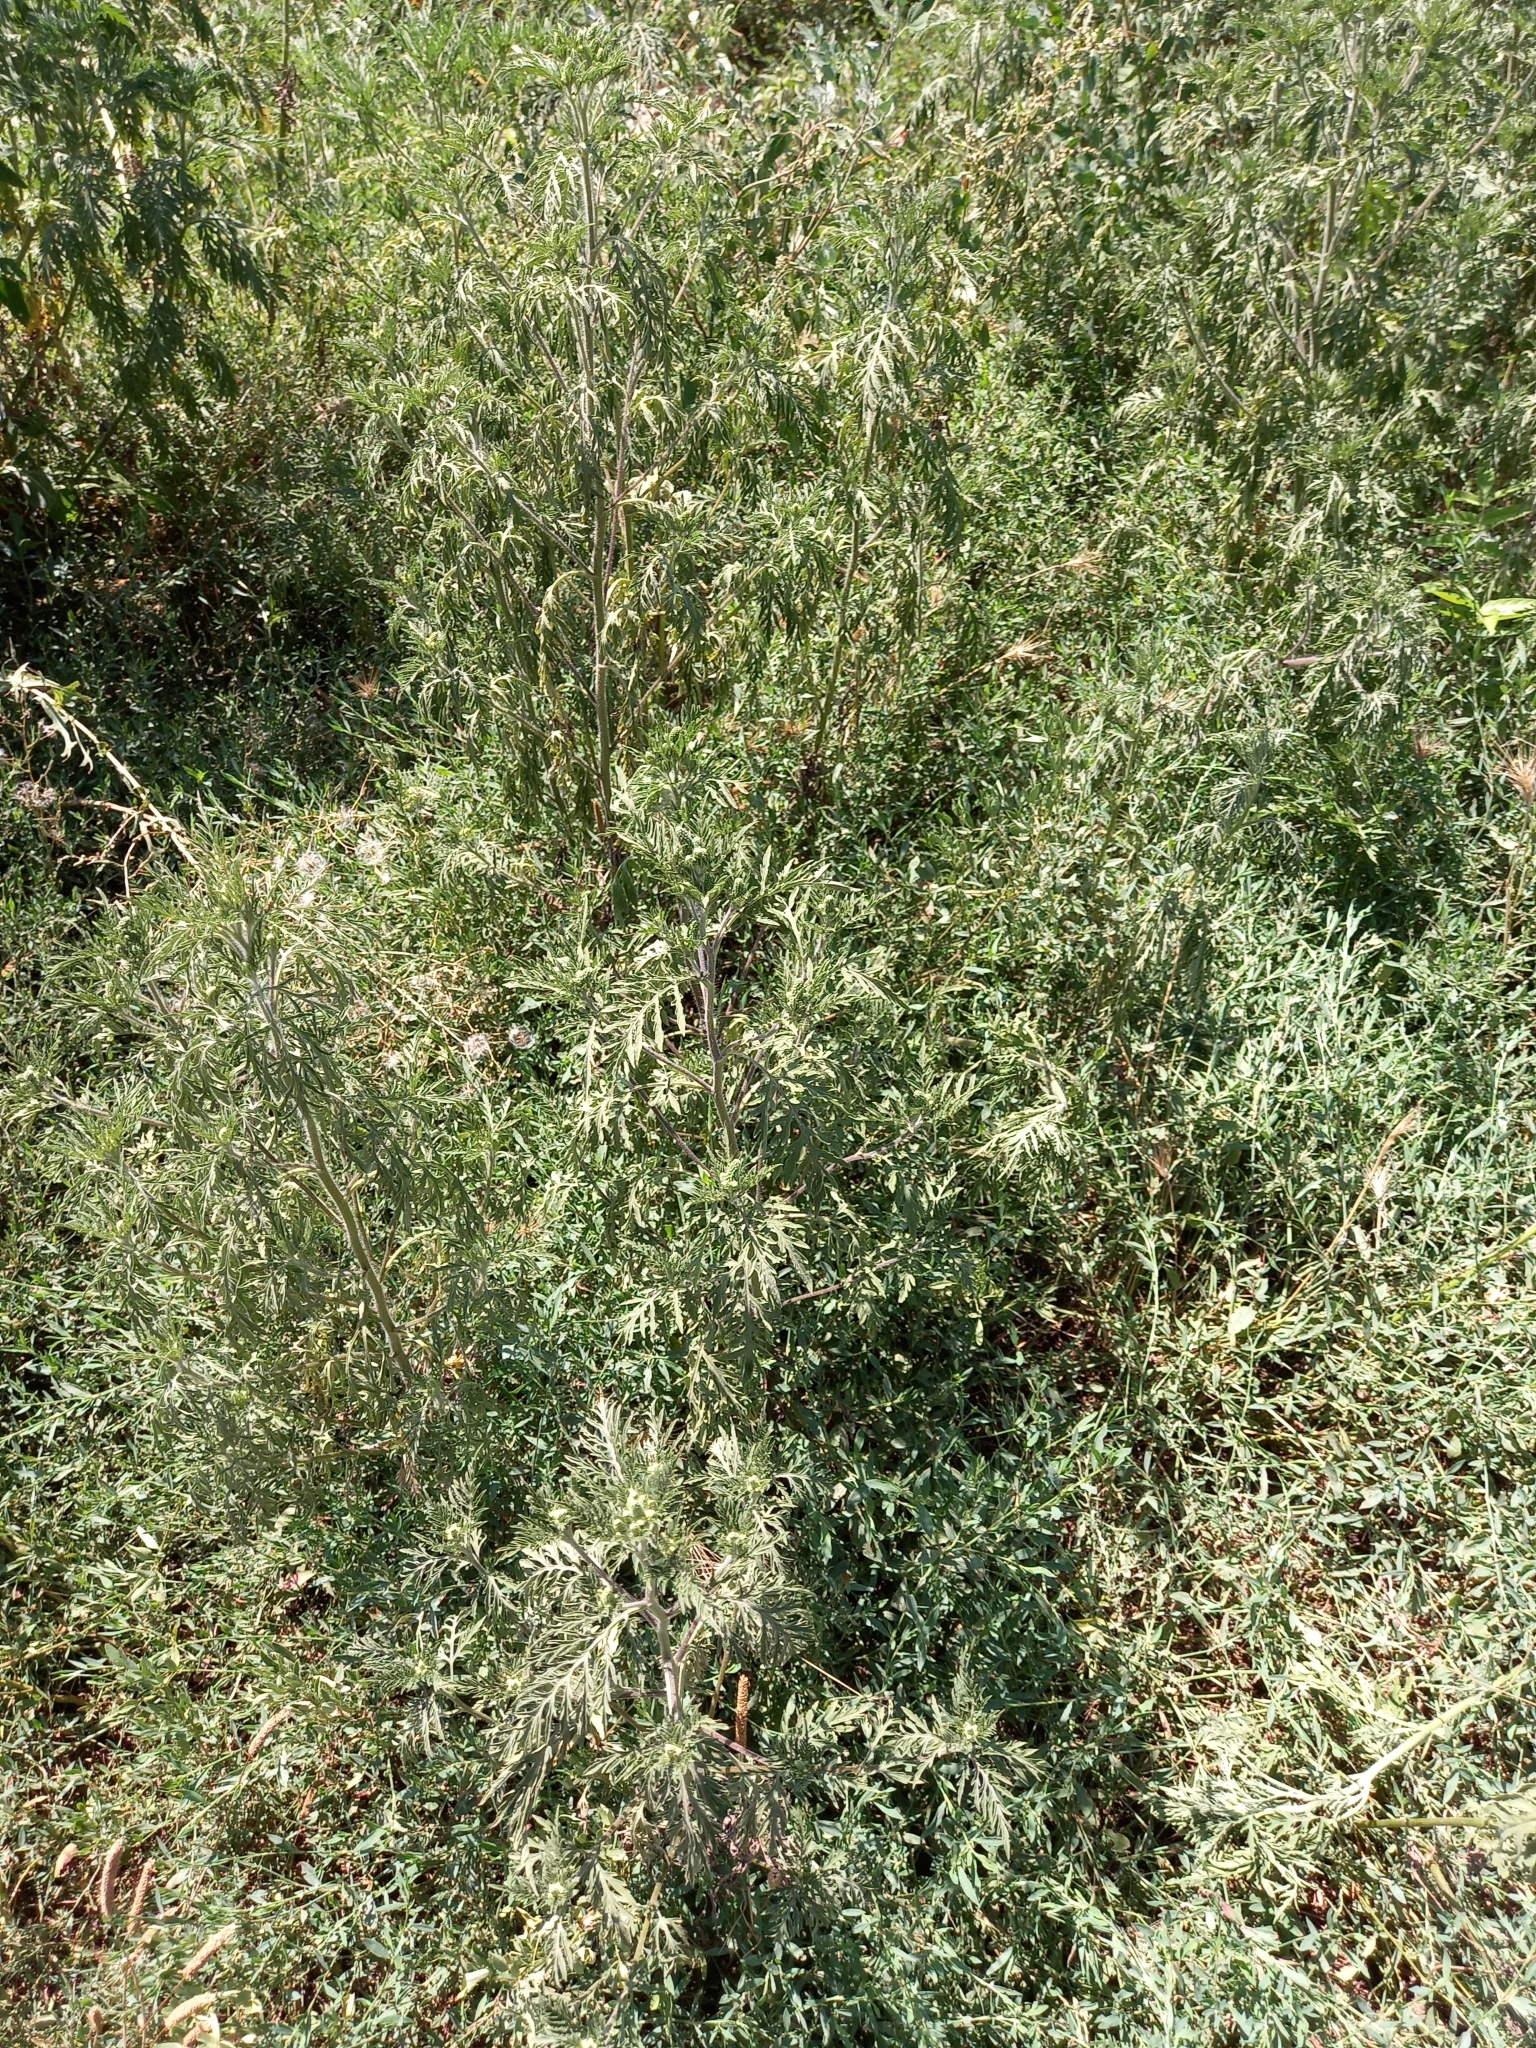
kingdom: Plantae
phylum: Tracheophyta
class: Magnoliopsida
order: Asterales
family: Asteraceae
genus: Ambrosia
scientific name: Ambrosia artemisiifolia
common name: Annual ragweed
